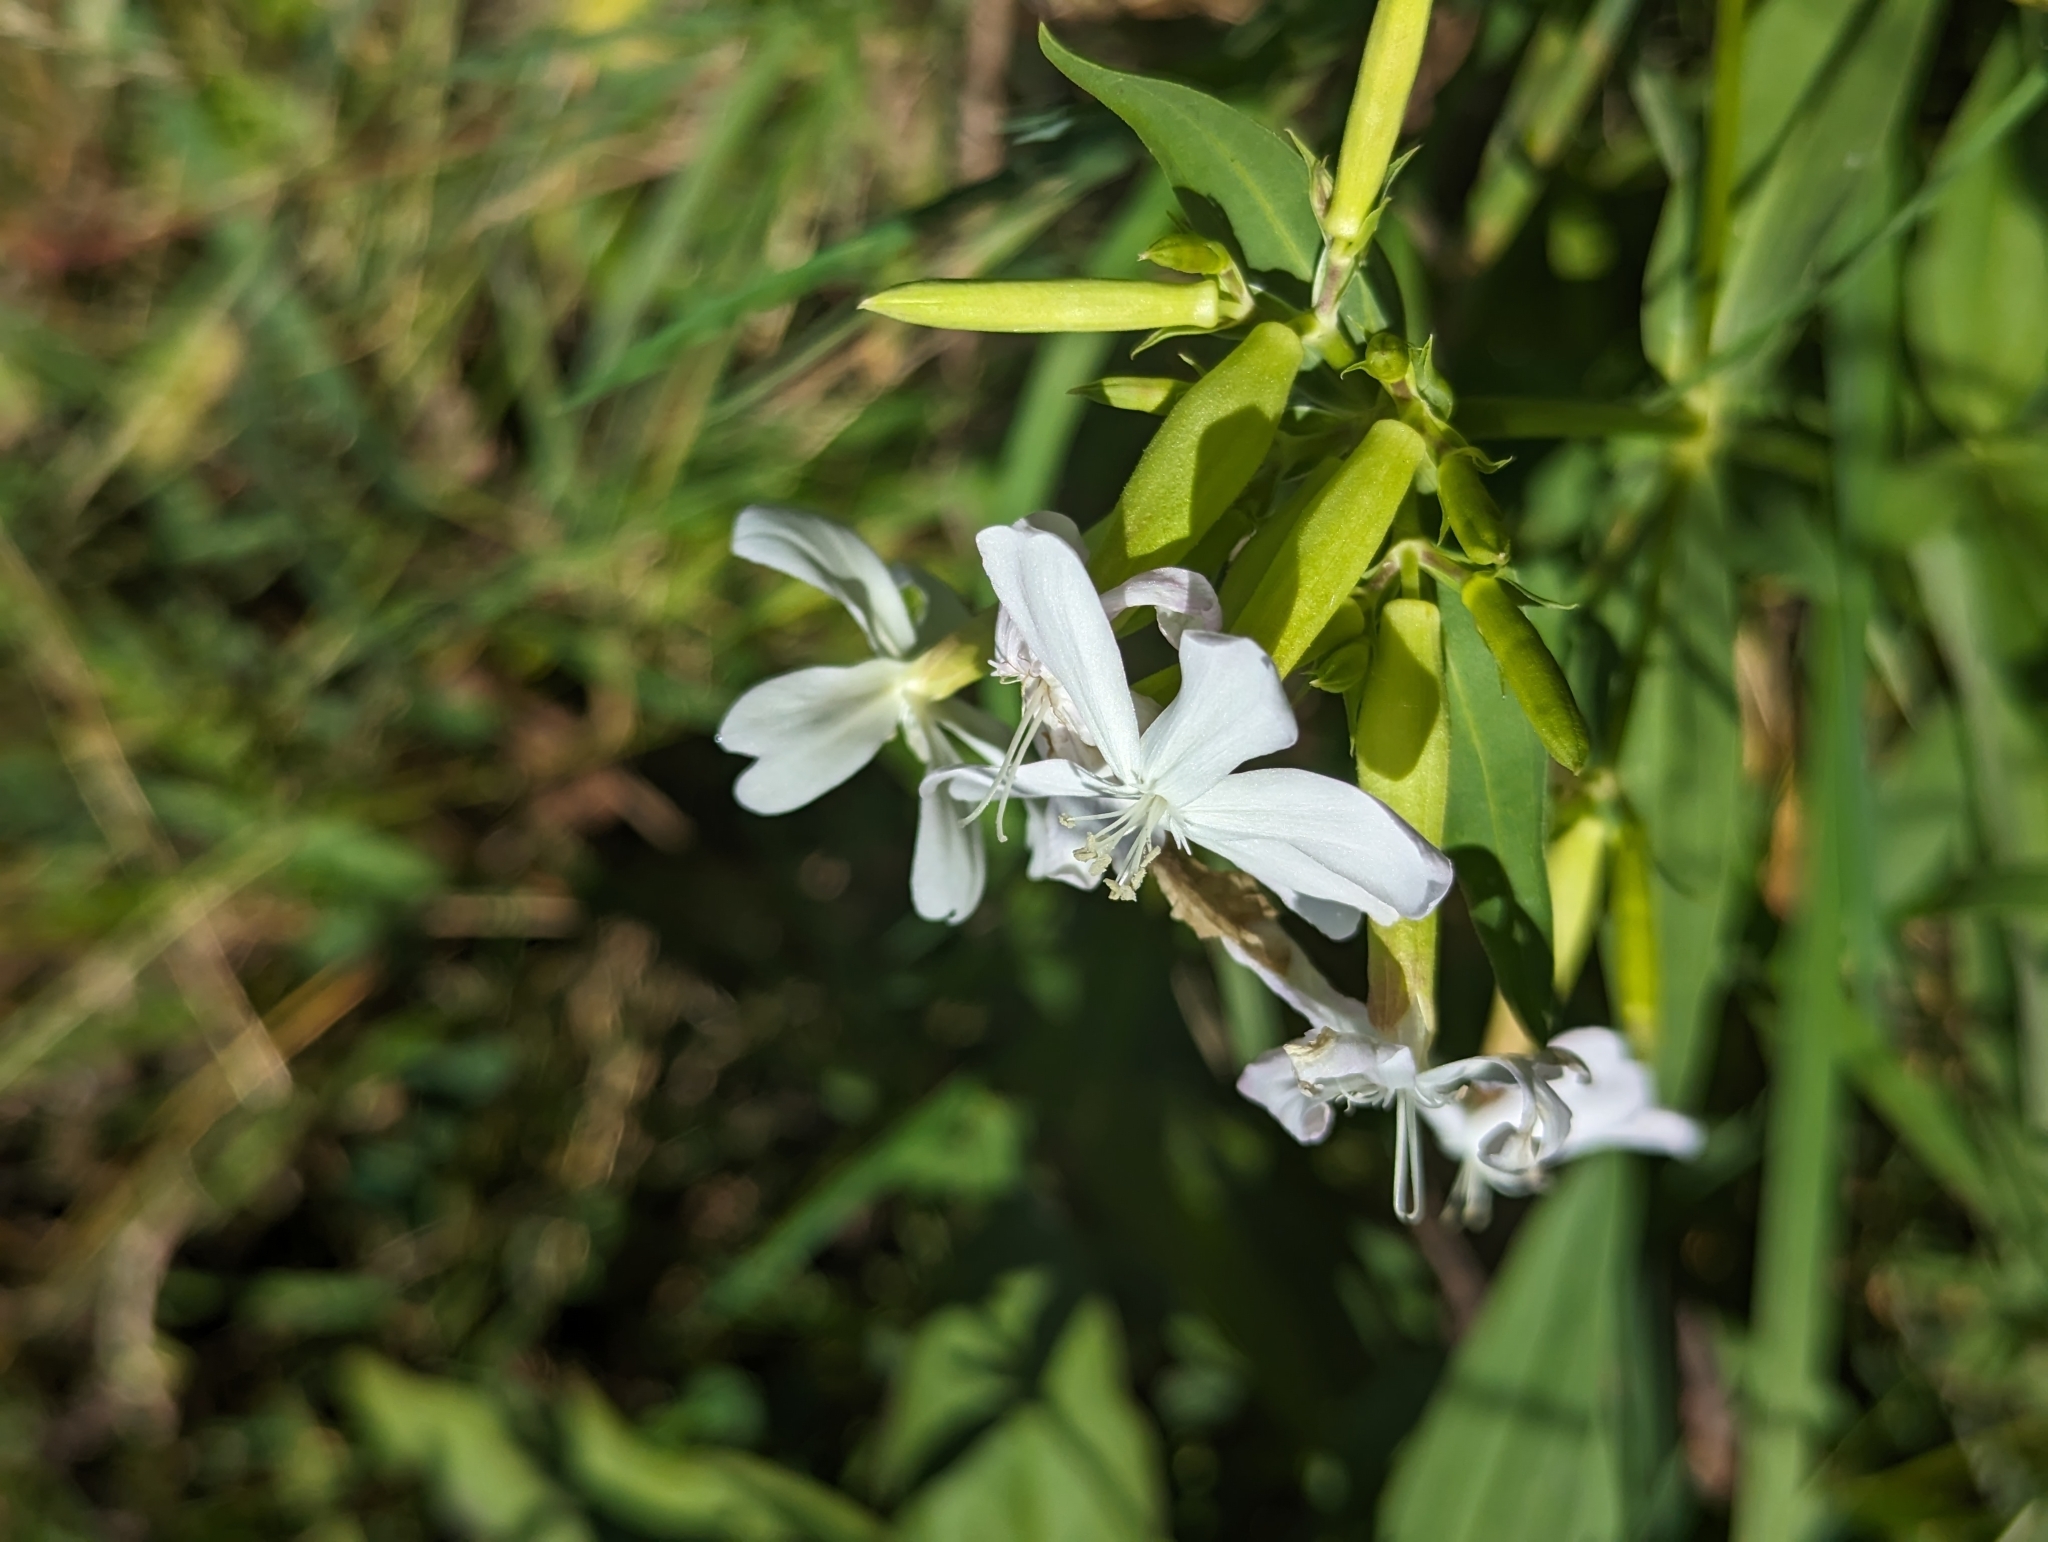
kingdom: Plantae
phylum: Tracheophyta
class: Magnoliopsida
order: Caryophyllales
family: Caryophyllaceae
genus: Saponaria
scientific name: Saponaria officinalis
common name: Soapwort
